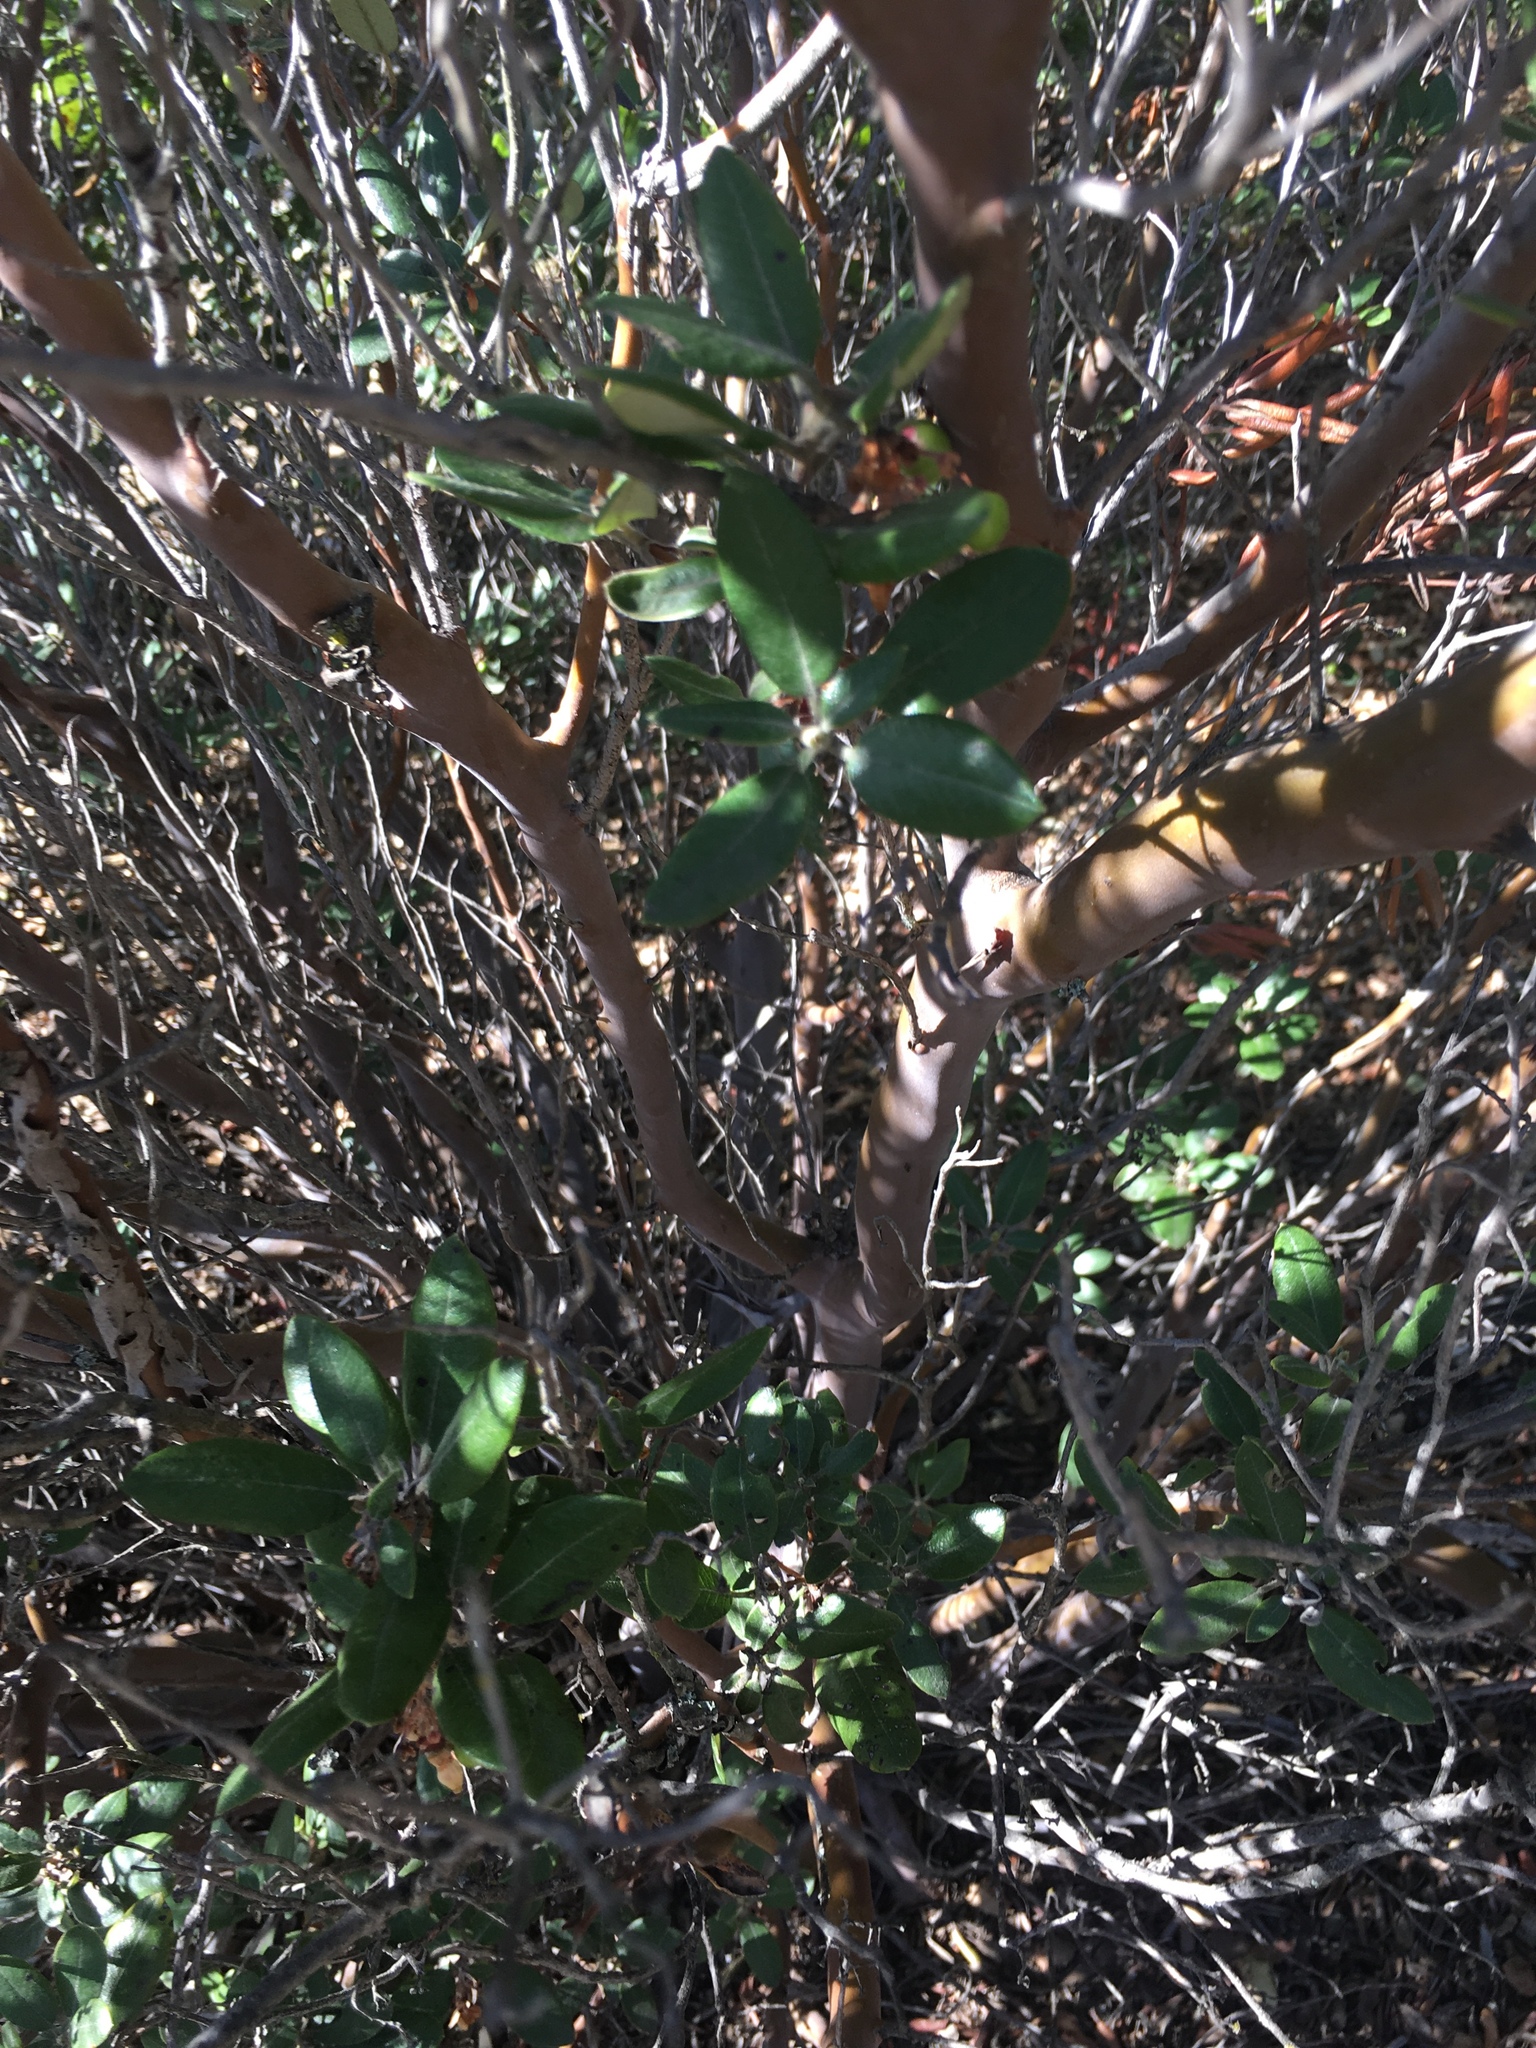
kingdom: Plantae
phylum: Tracheophyta
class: Magnoliopsida
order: Ericales
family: Ericaceae
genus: Arctostaphylos
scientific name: Arctostaphylos bicolor
